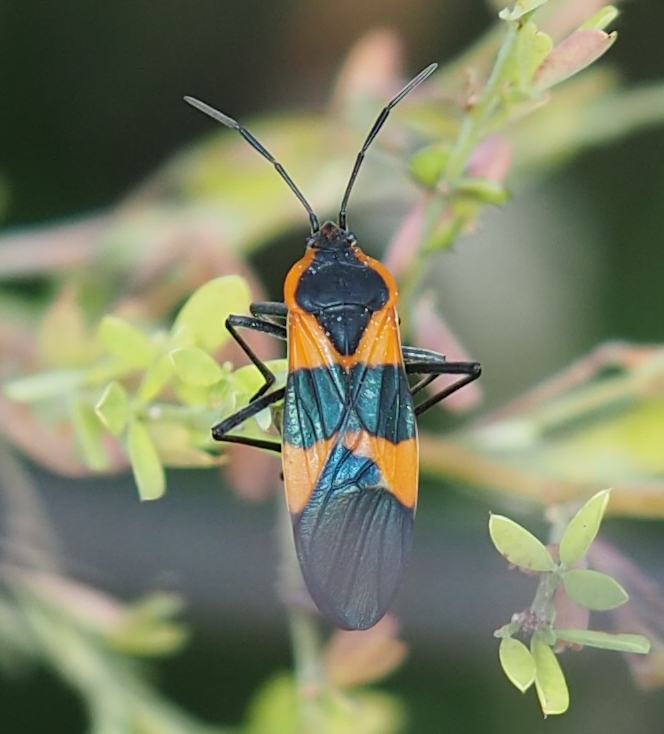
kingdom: Animalia
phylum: Arthropoda
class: Insecta
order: Hemiptera
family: Lygaeidae
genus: Oncopeltus
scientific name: Oncopeltus fasciatus
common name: Large milkweed bug
